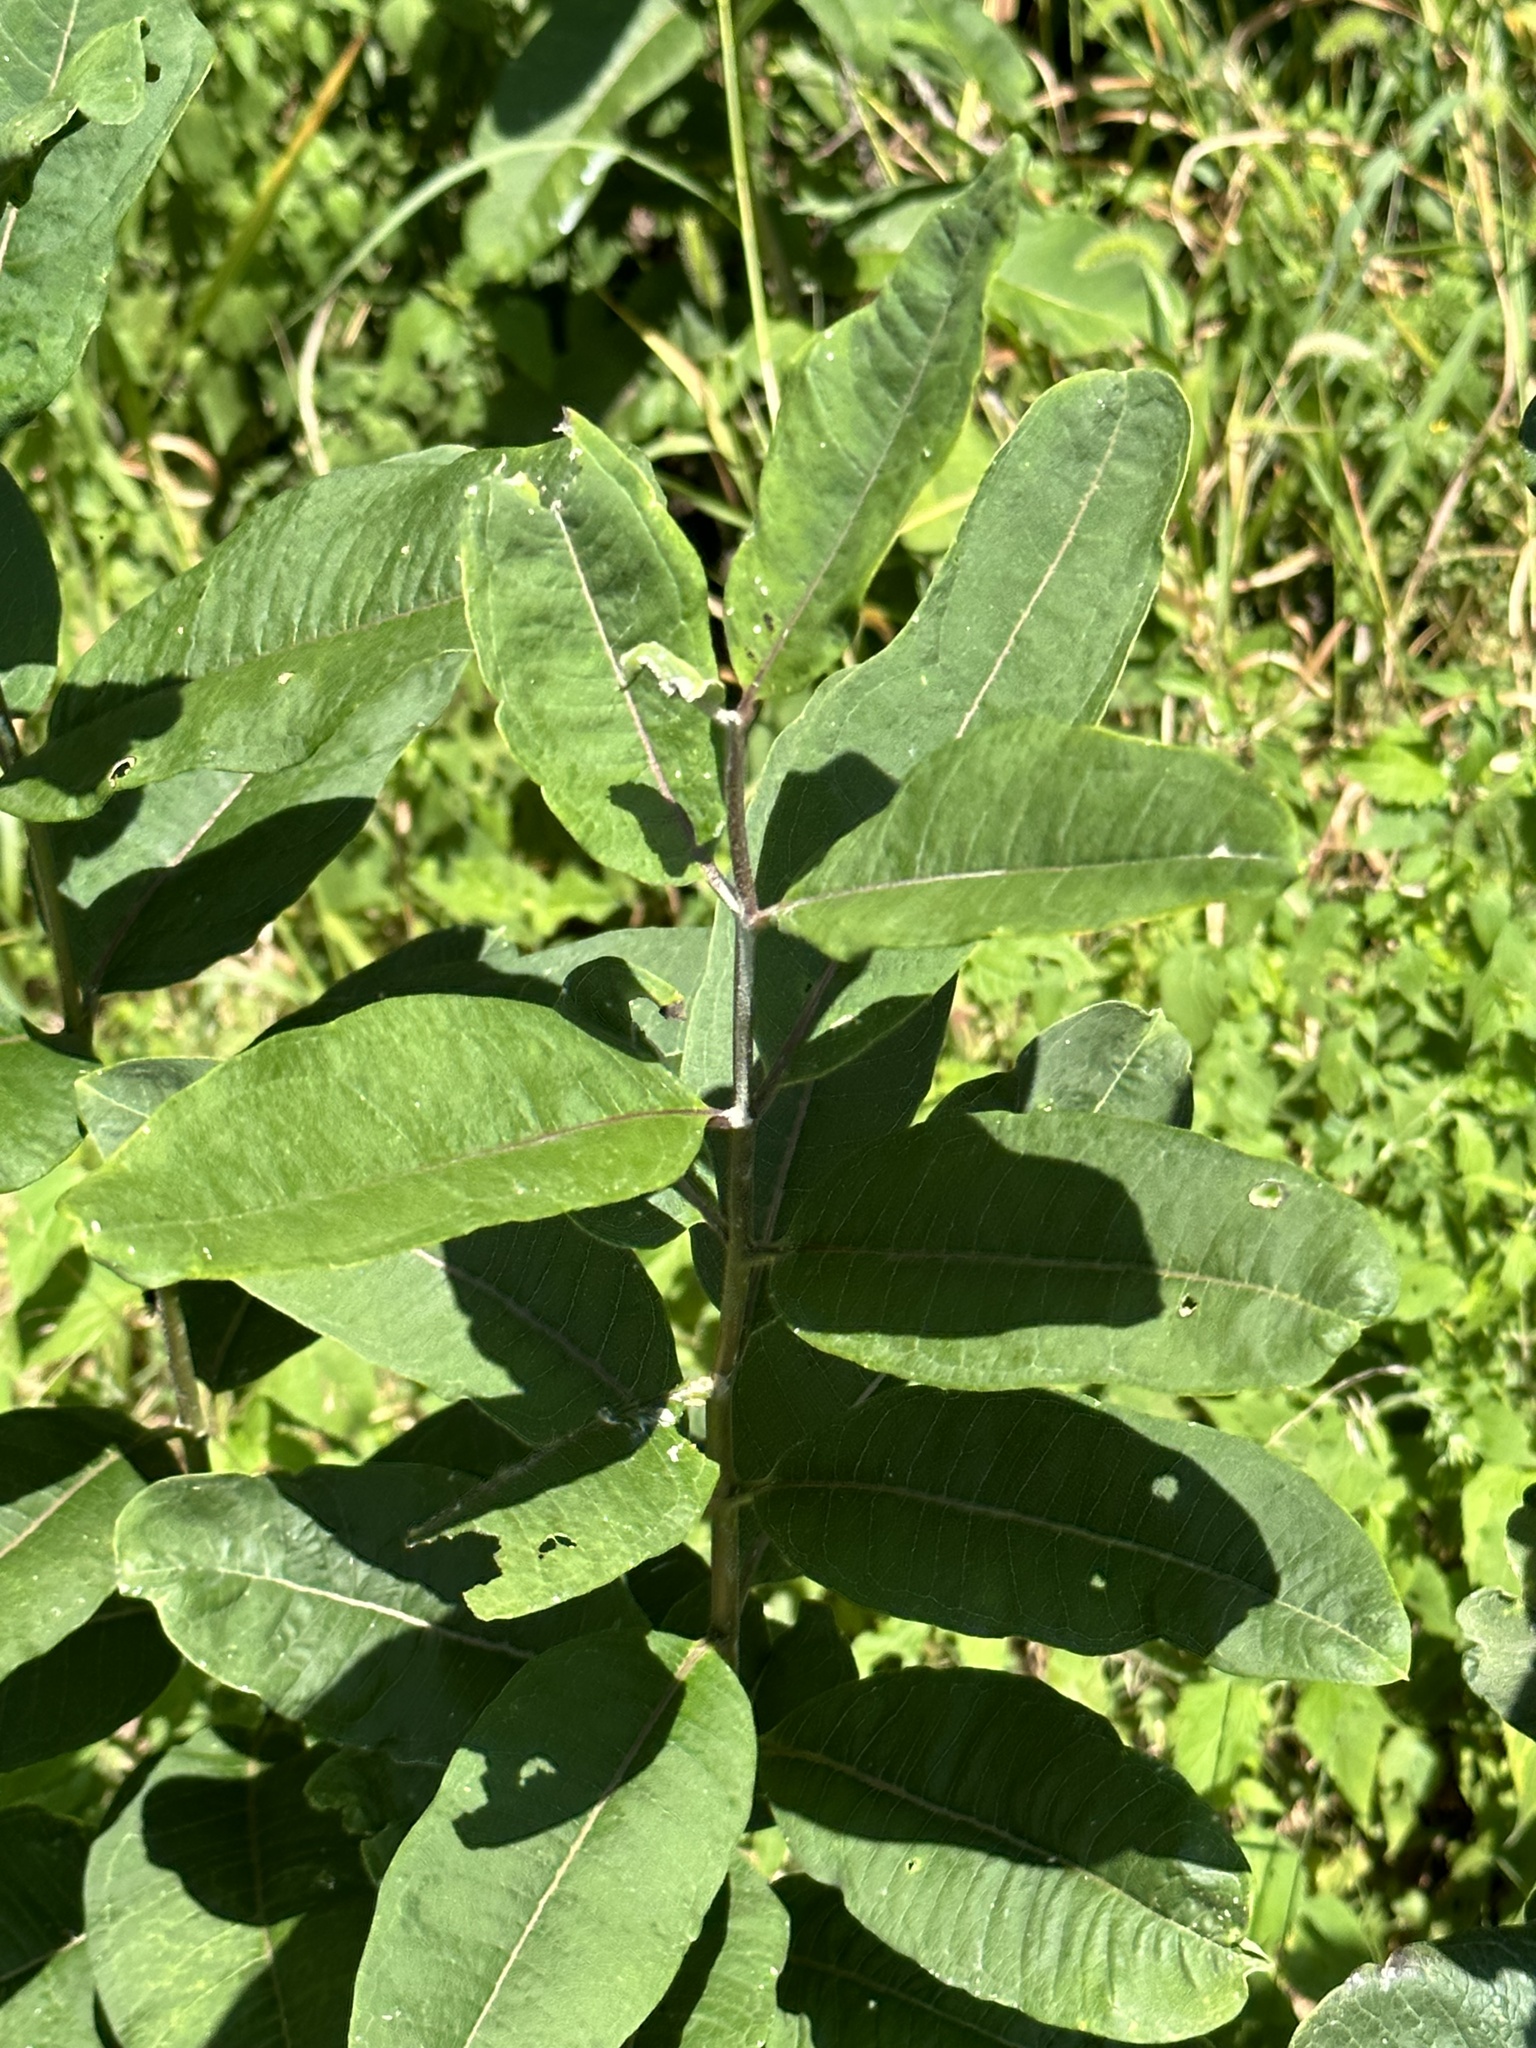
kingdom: Plantae
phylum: Tracheophyta
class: Magnoliopsida
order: Gentianales
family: Apocynaceae
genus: Asclepias
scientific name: Asclepias syriaca
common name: Common milkweed
